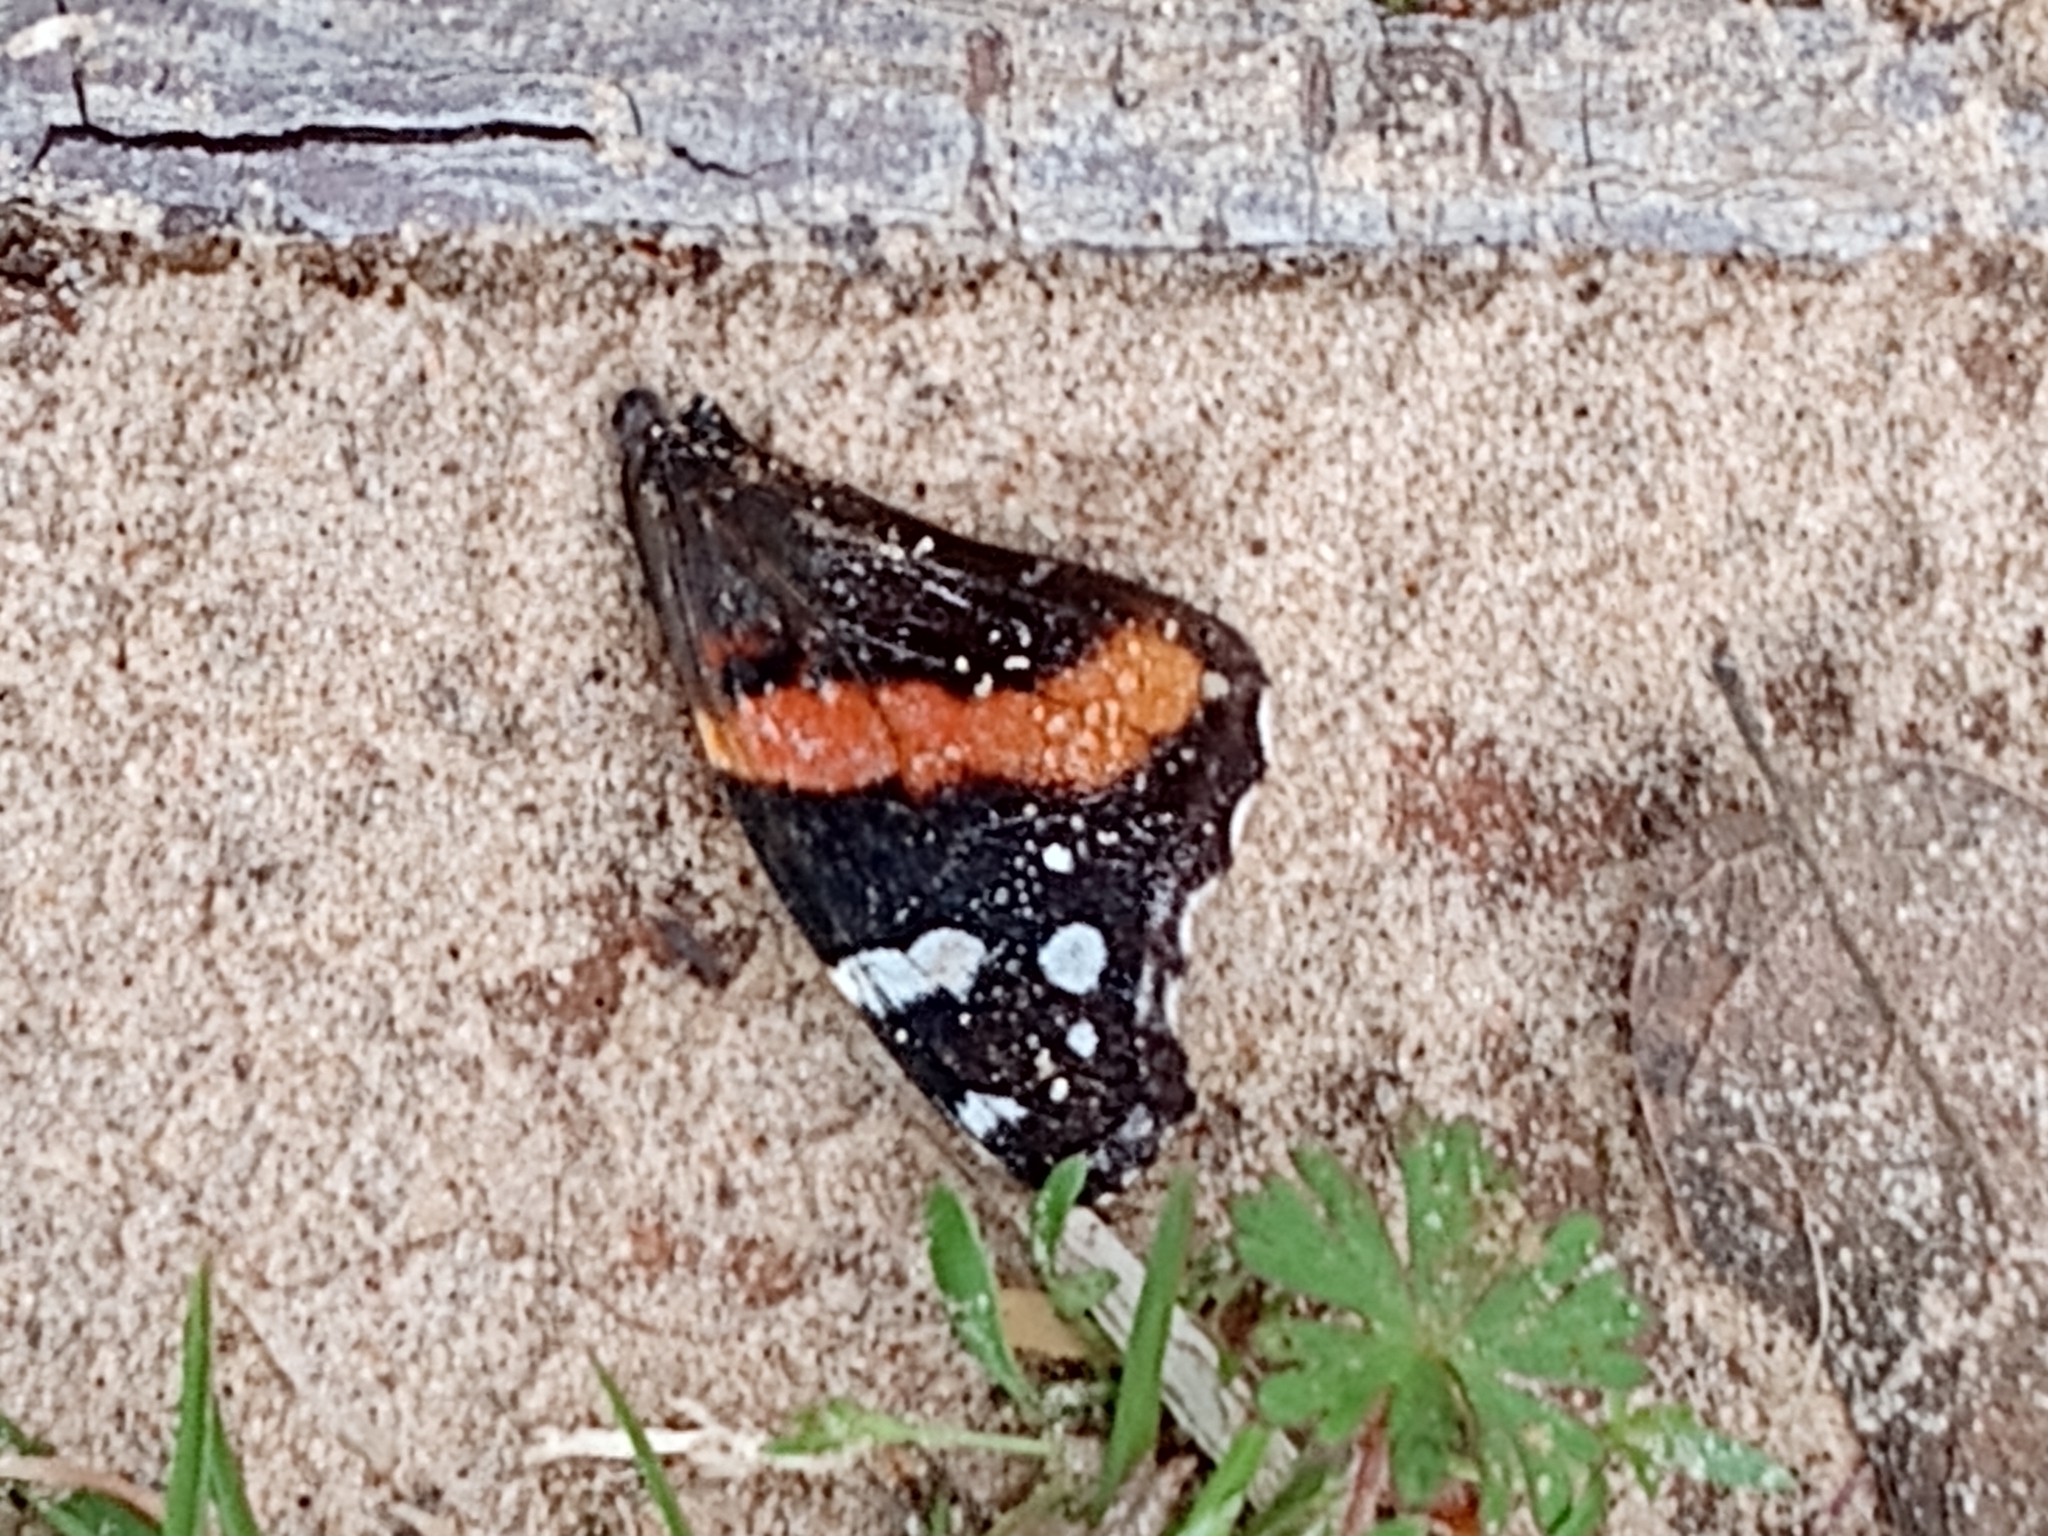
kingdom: Animalia
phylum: Arthropoda
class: Insecta
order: Lepidoptera
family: Nymphalidae
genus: Vanessa
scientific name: Vanessa atalanta
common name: Red admiral
